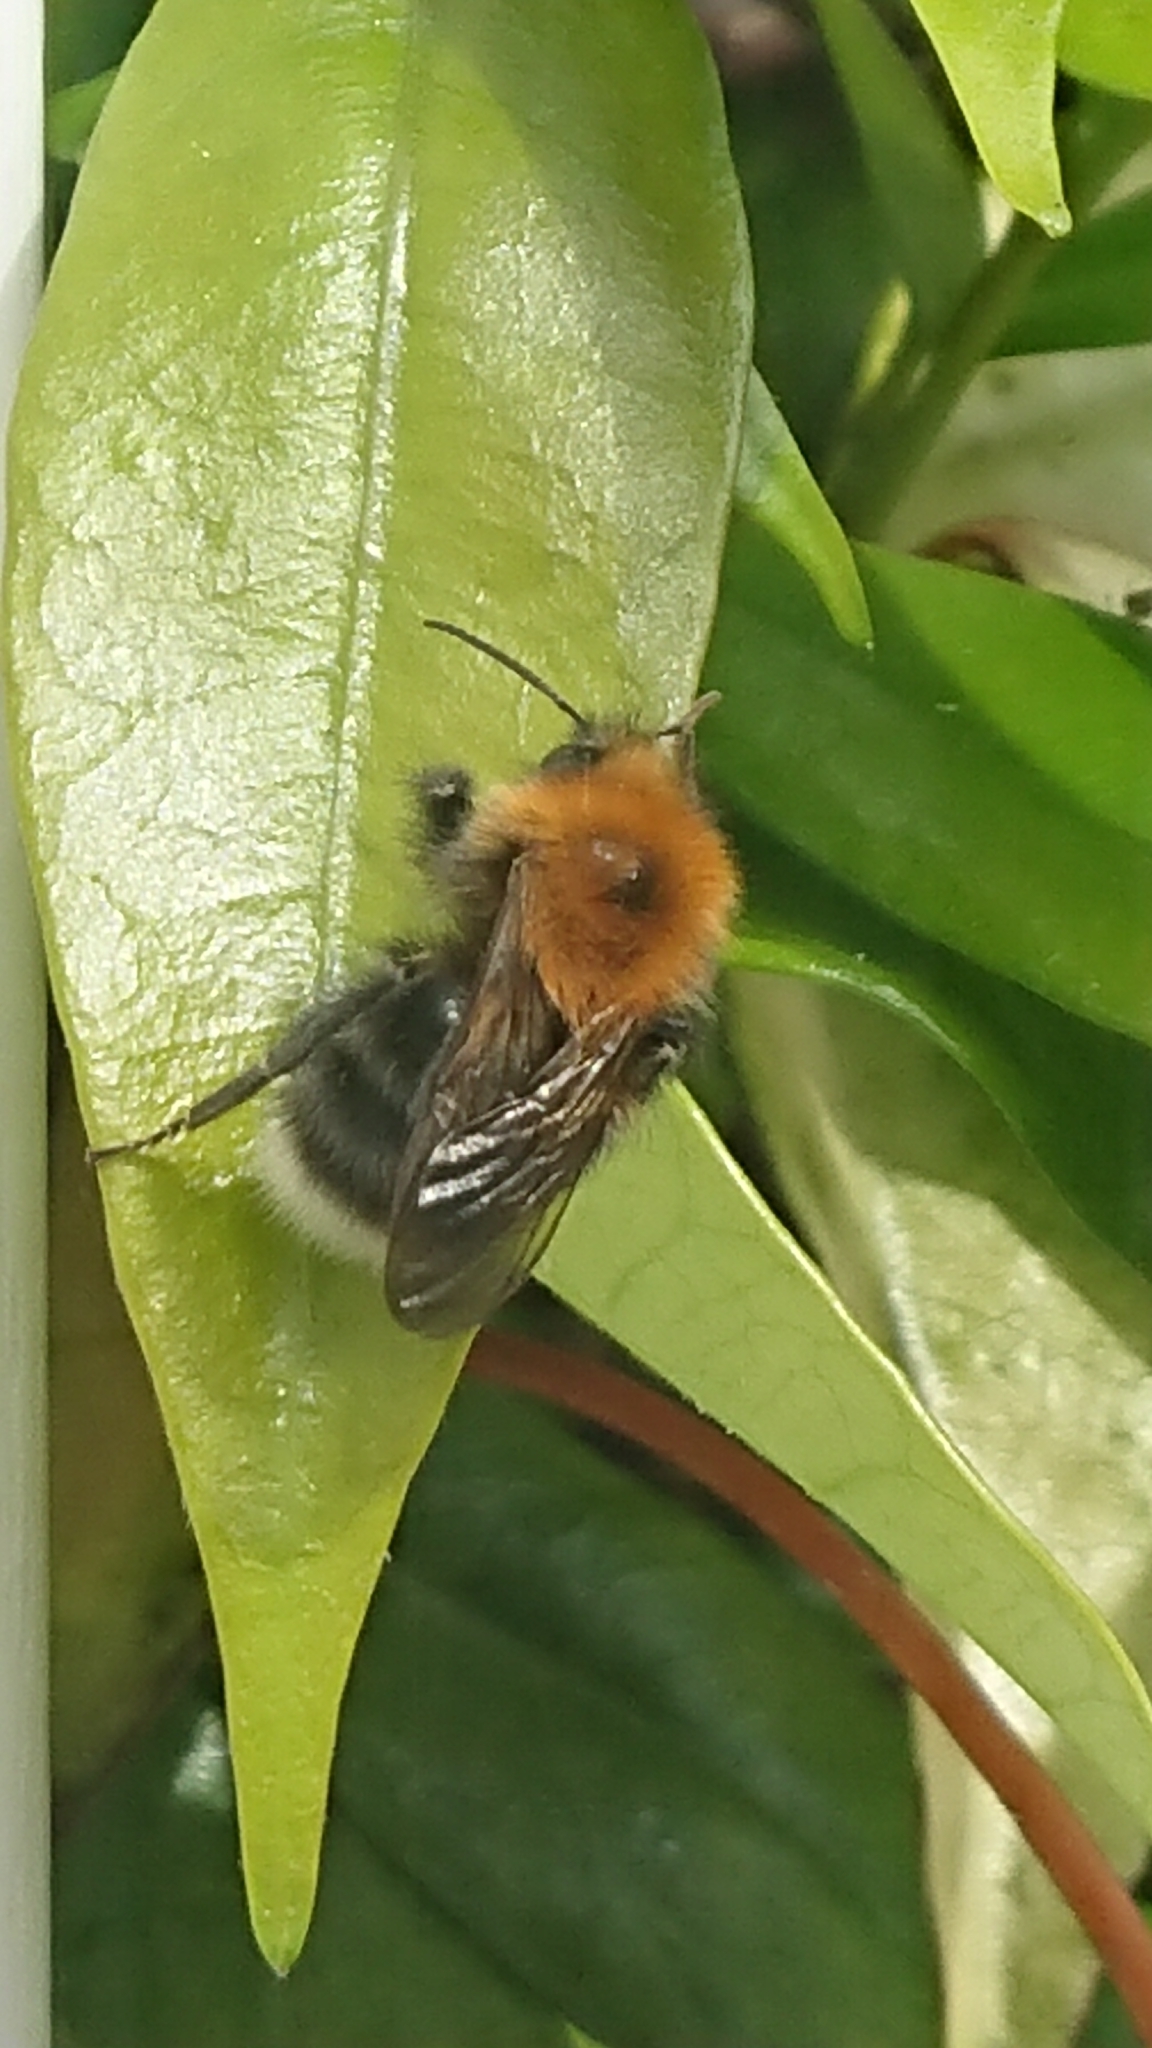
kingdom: Animalia
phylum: Arthropoda
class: Insecta
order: Hymenoptera
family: Apidae
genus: Bombus
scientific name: Bombus hypnorum
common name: New garden bumblebee
